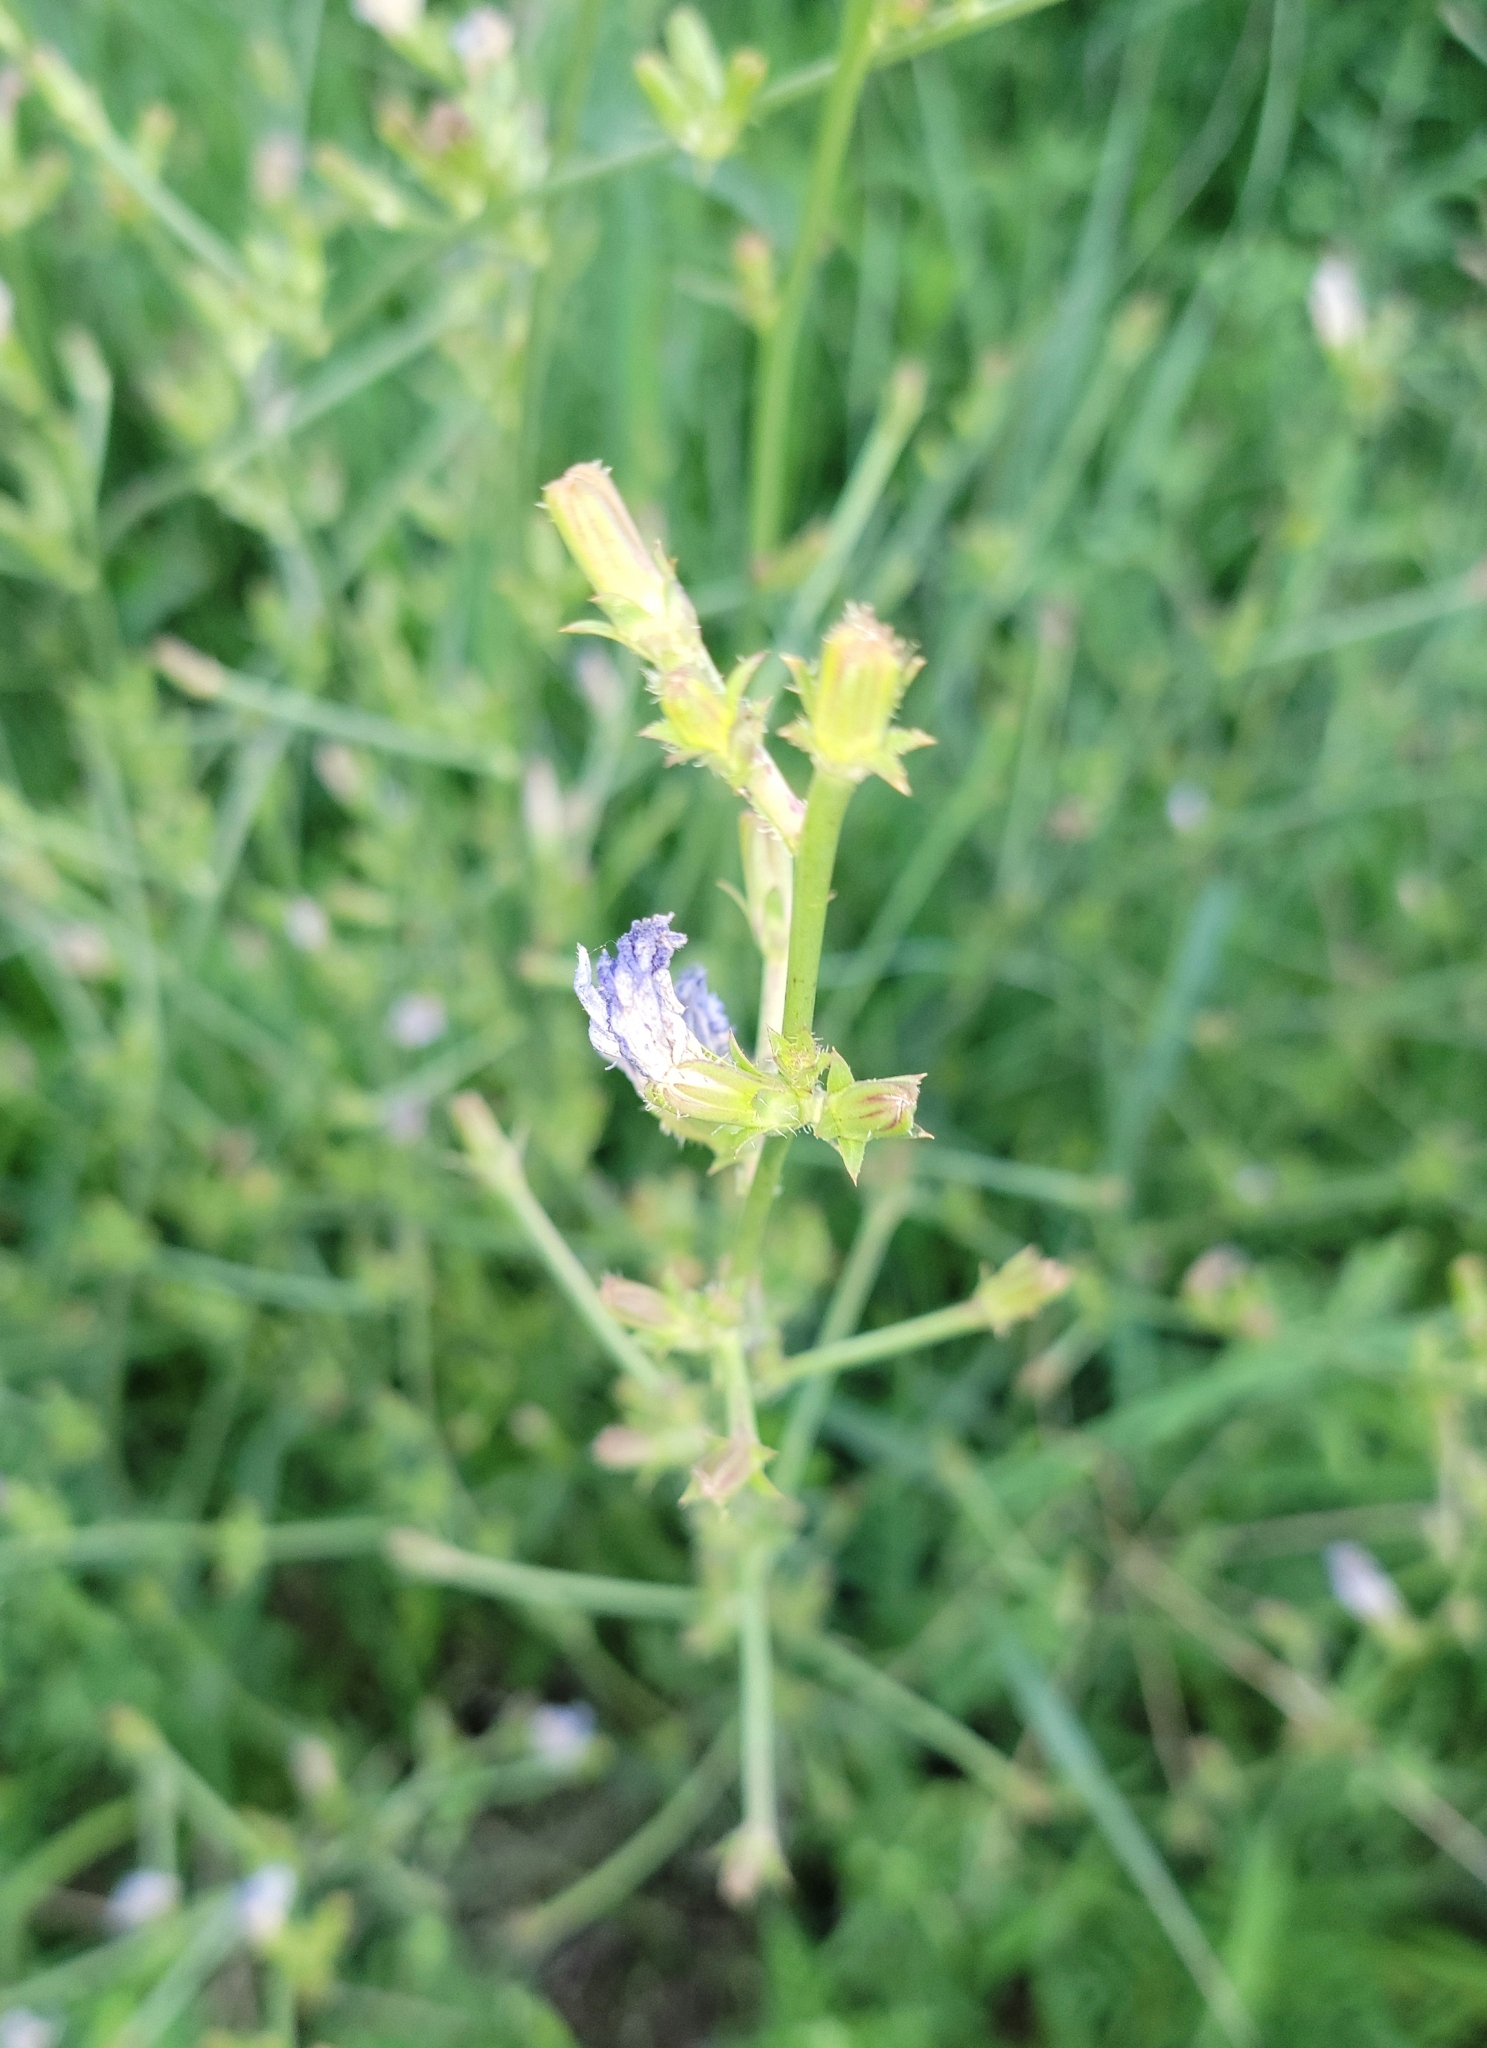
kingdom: Plantae
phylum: Tracheophyta
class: Magnoliopsida
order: Asterales
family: Asteraceae
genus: Cichorium
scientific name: Cichorium intybus
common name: Chicory
